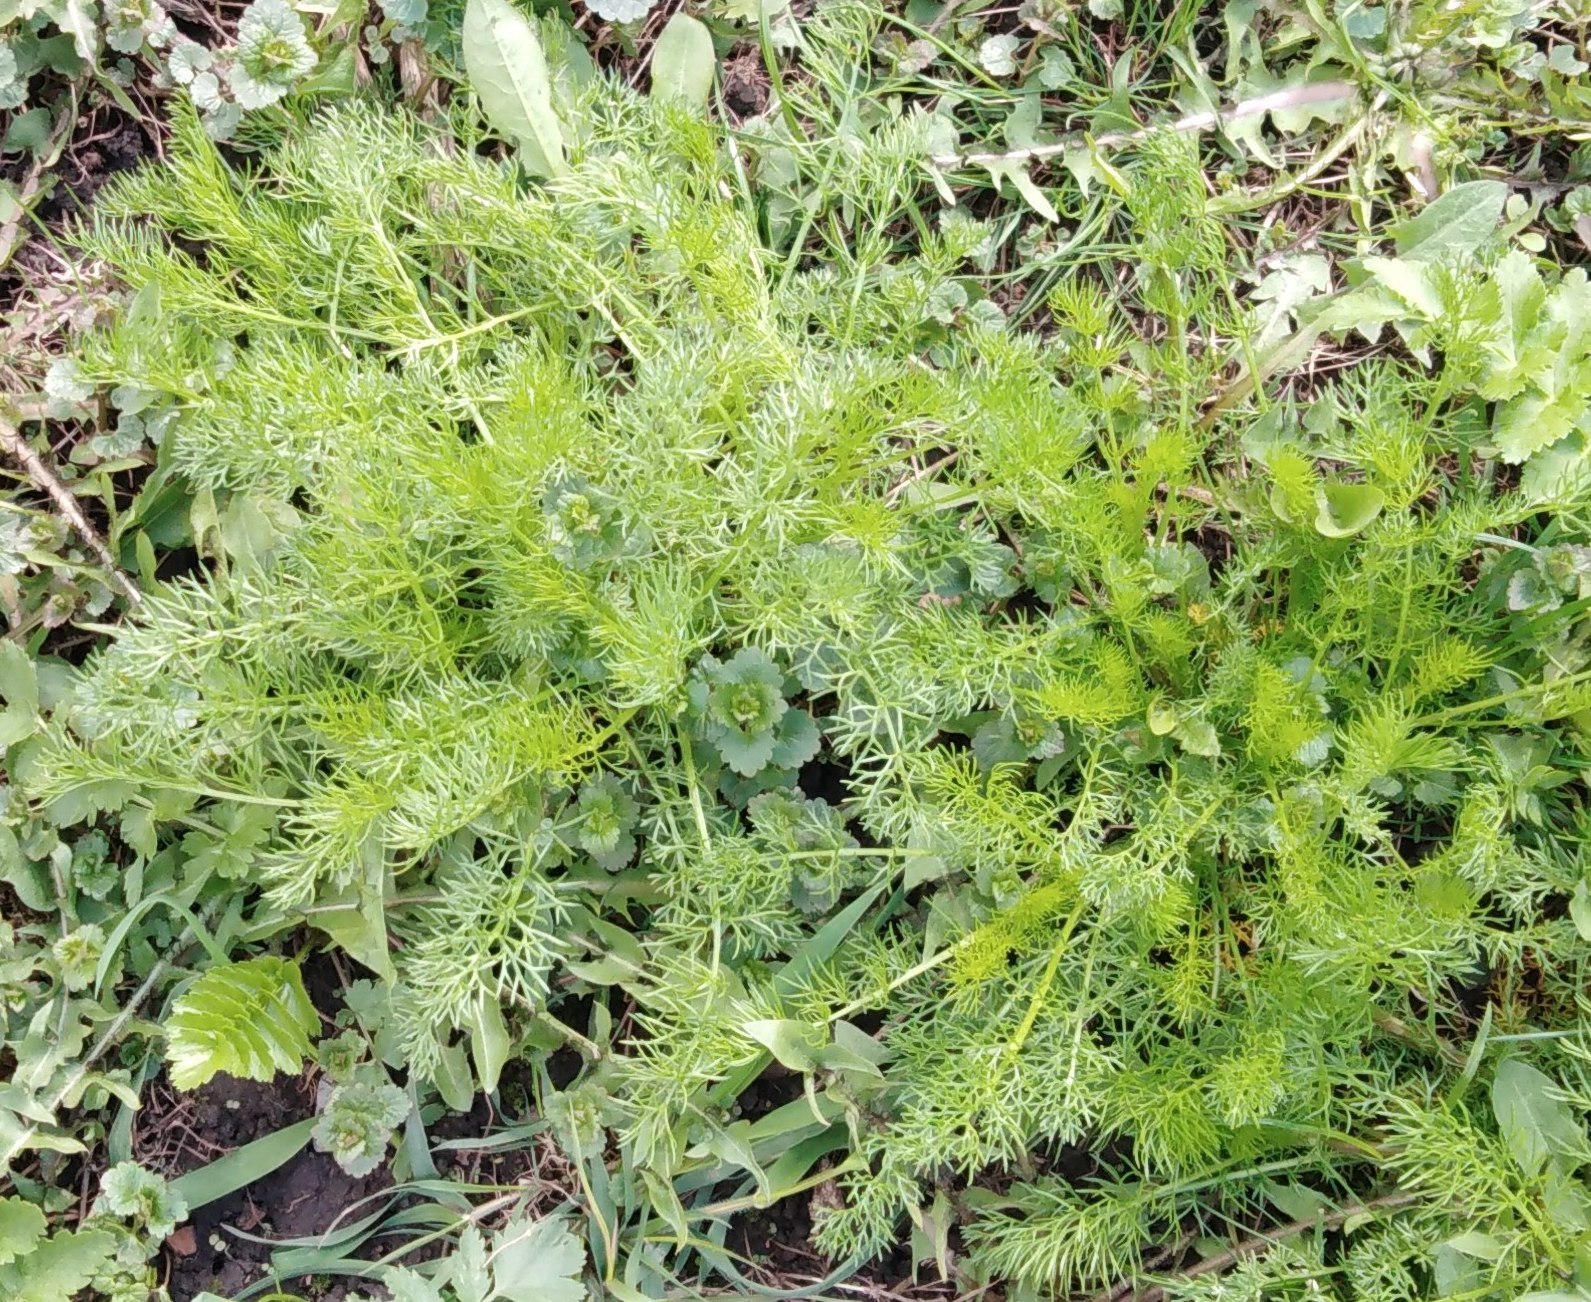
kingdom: Plantae
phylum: Tracheophyta
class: Magnoliopsida
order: Asterales
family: Asteraceae
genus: Tripleurospermum
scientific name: Tripleurospermum inodorum
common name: Scentless mayweed
